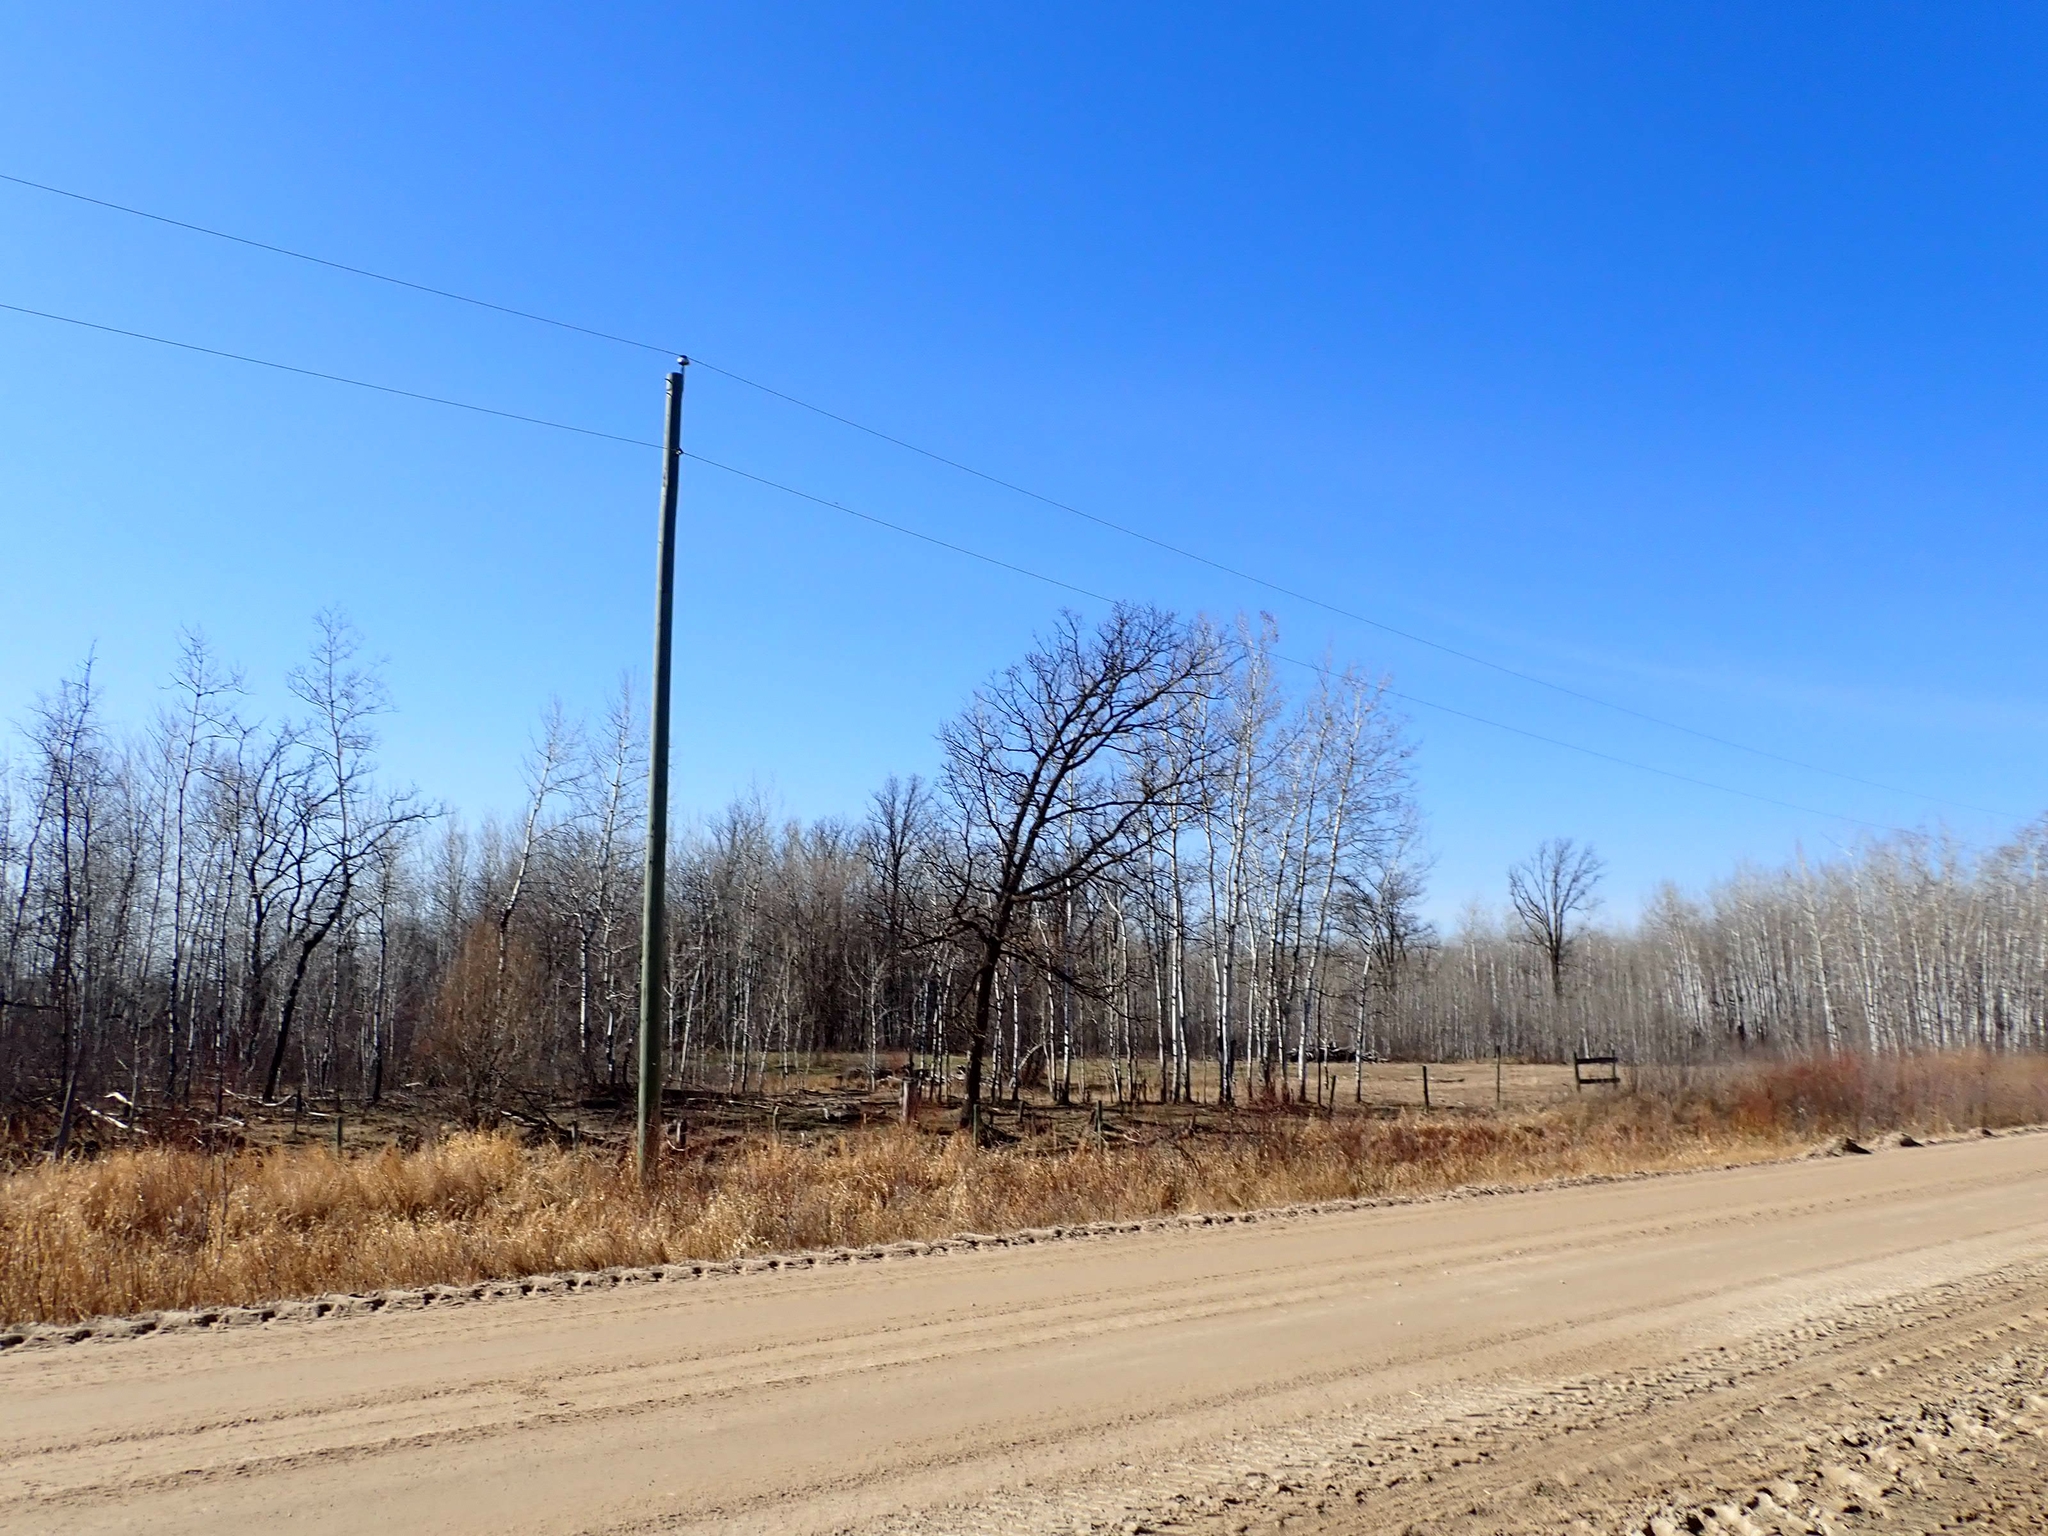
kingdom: Plantae
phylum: Tracheophyta
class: Magnoliopsida
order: Fagales
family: Fagaceae
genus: Quercus
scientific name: Quercus macrocarpa
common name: Bur oak
